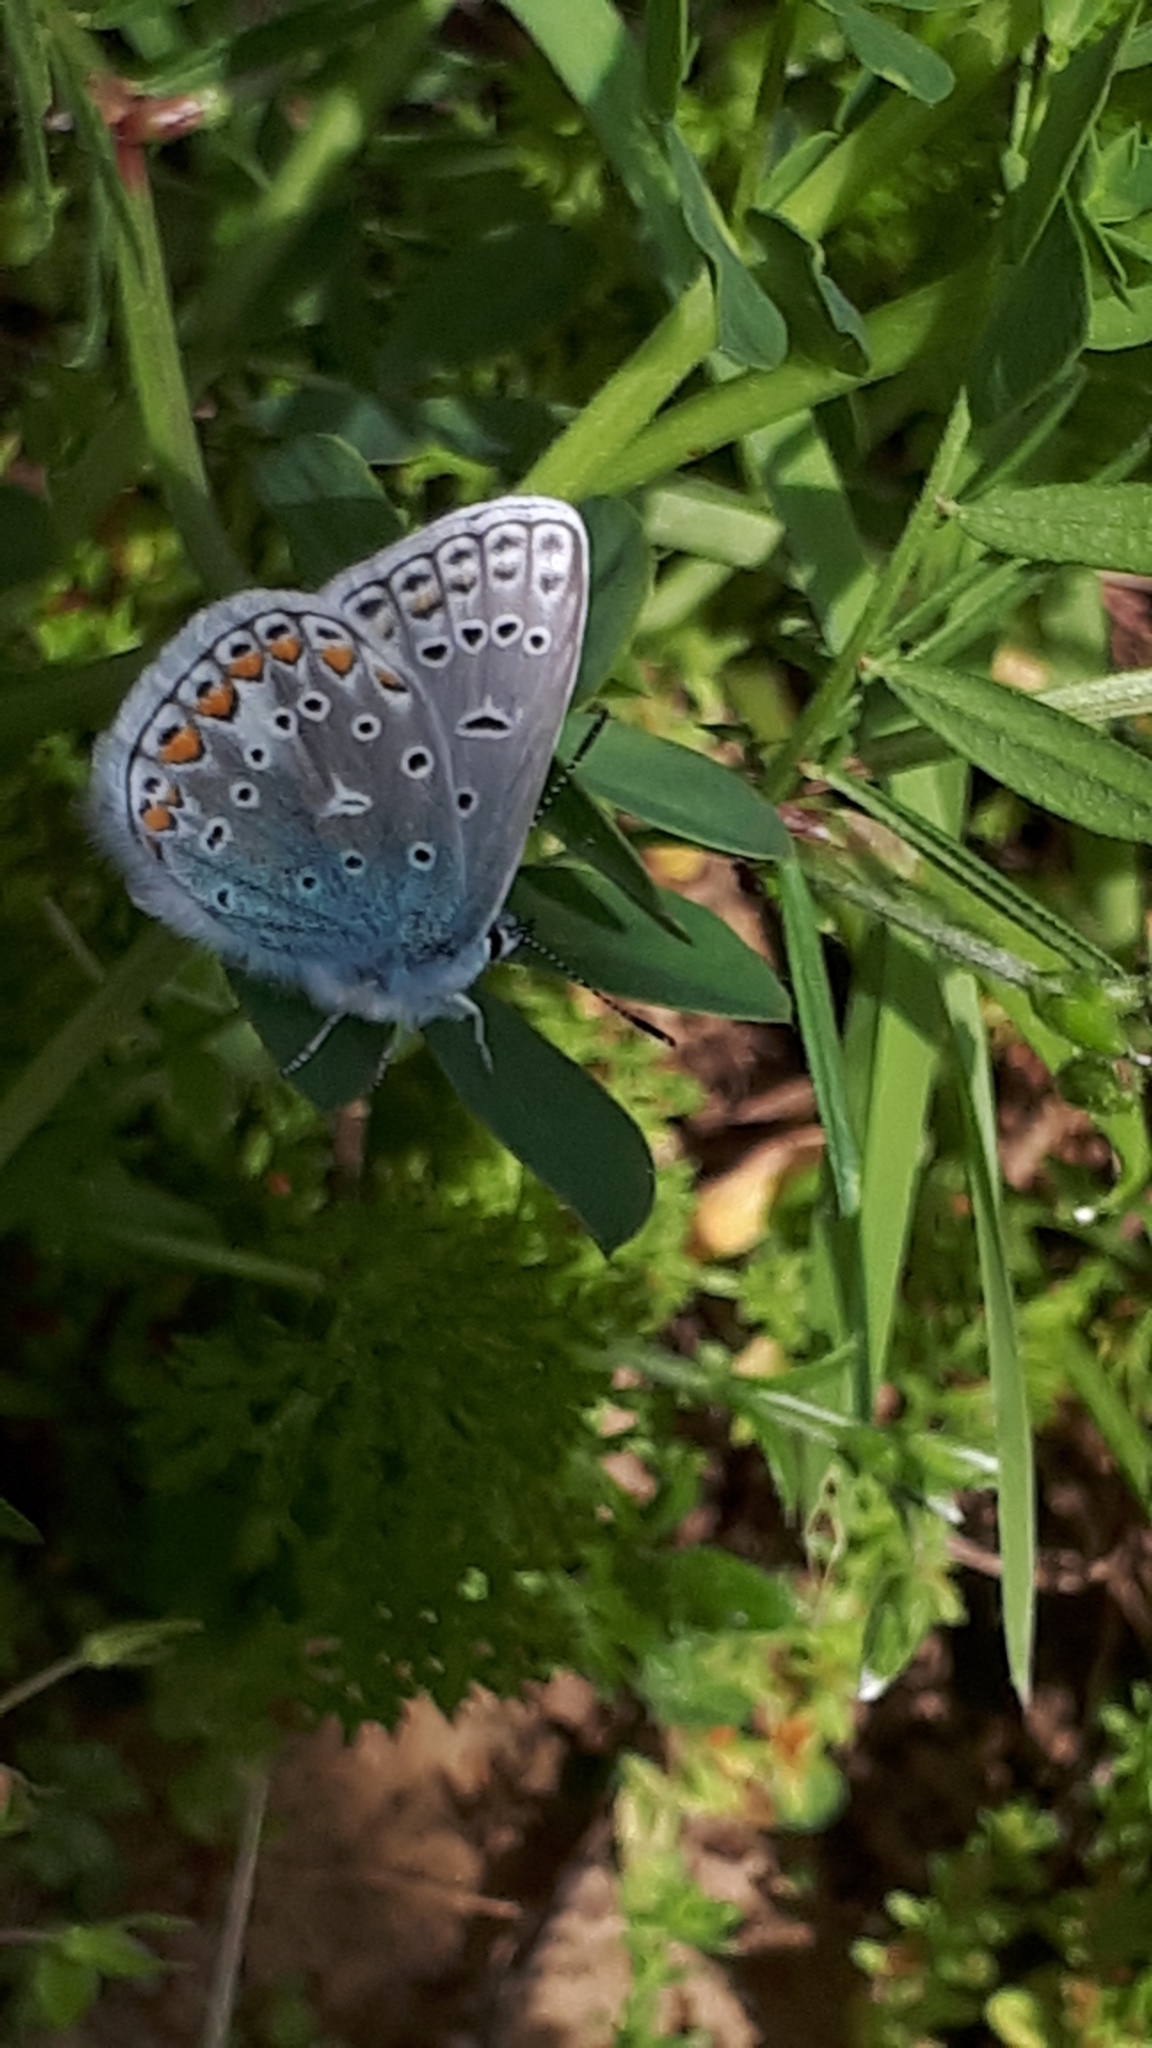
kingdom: Animalia
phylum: Arthropoda
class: Insecta
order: Lepidoptera
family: Lycaenidae
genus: Polyommatus
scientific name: Polyommatus icarus
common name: Common blue
